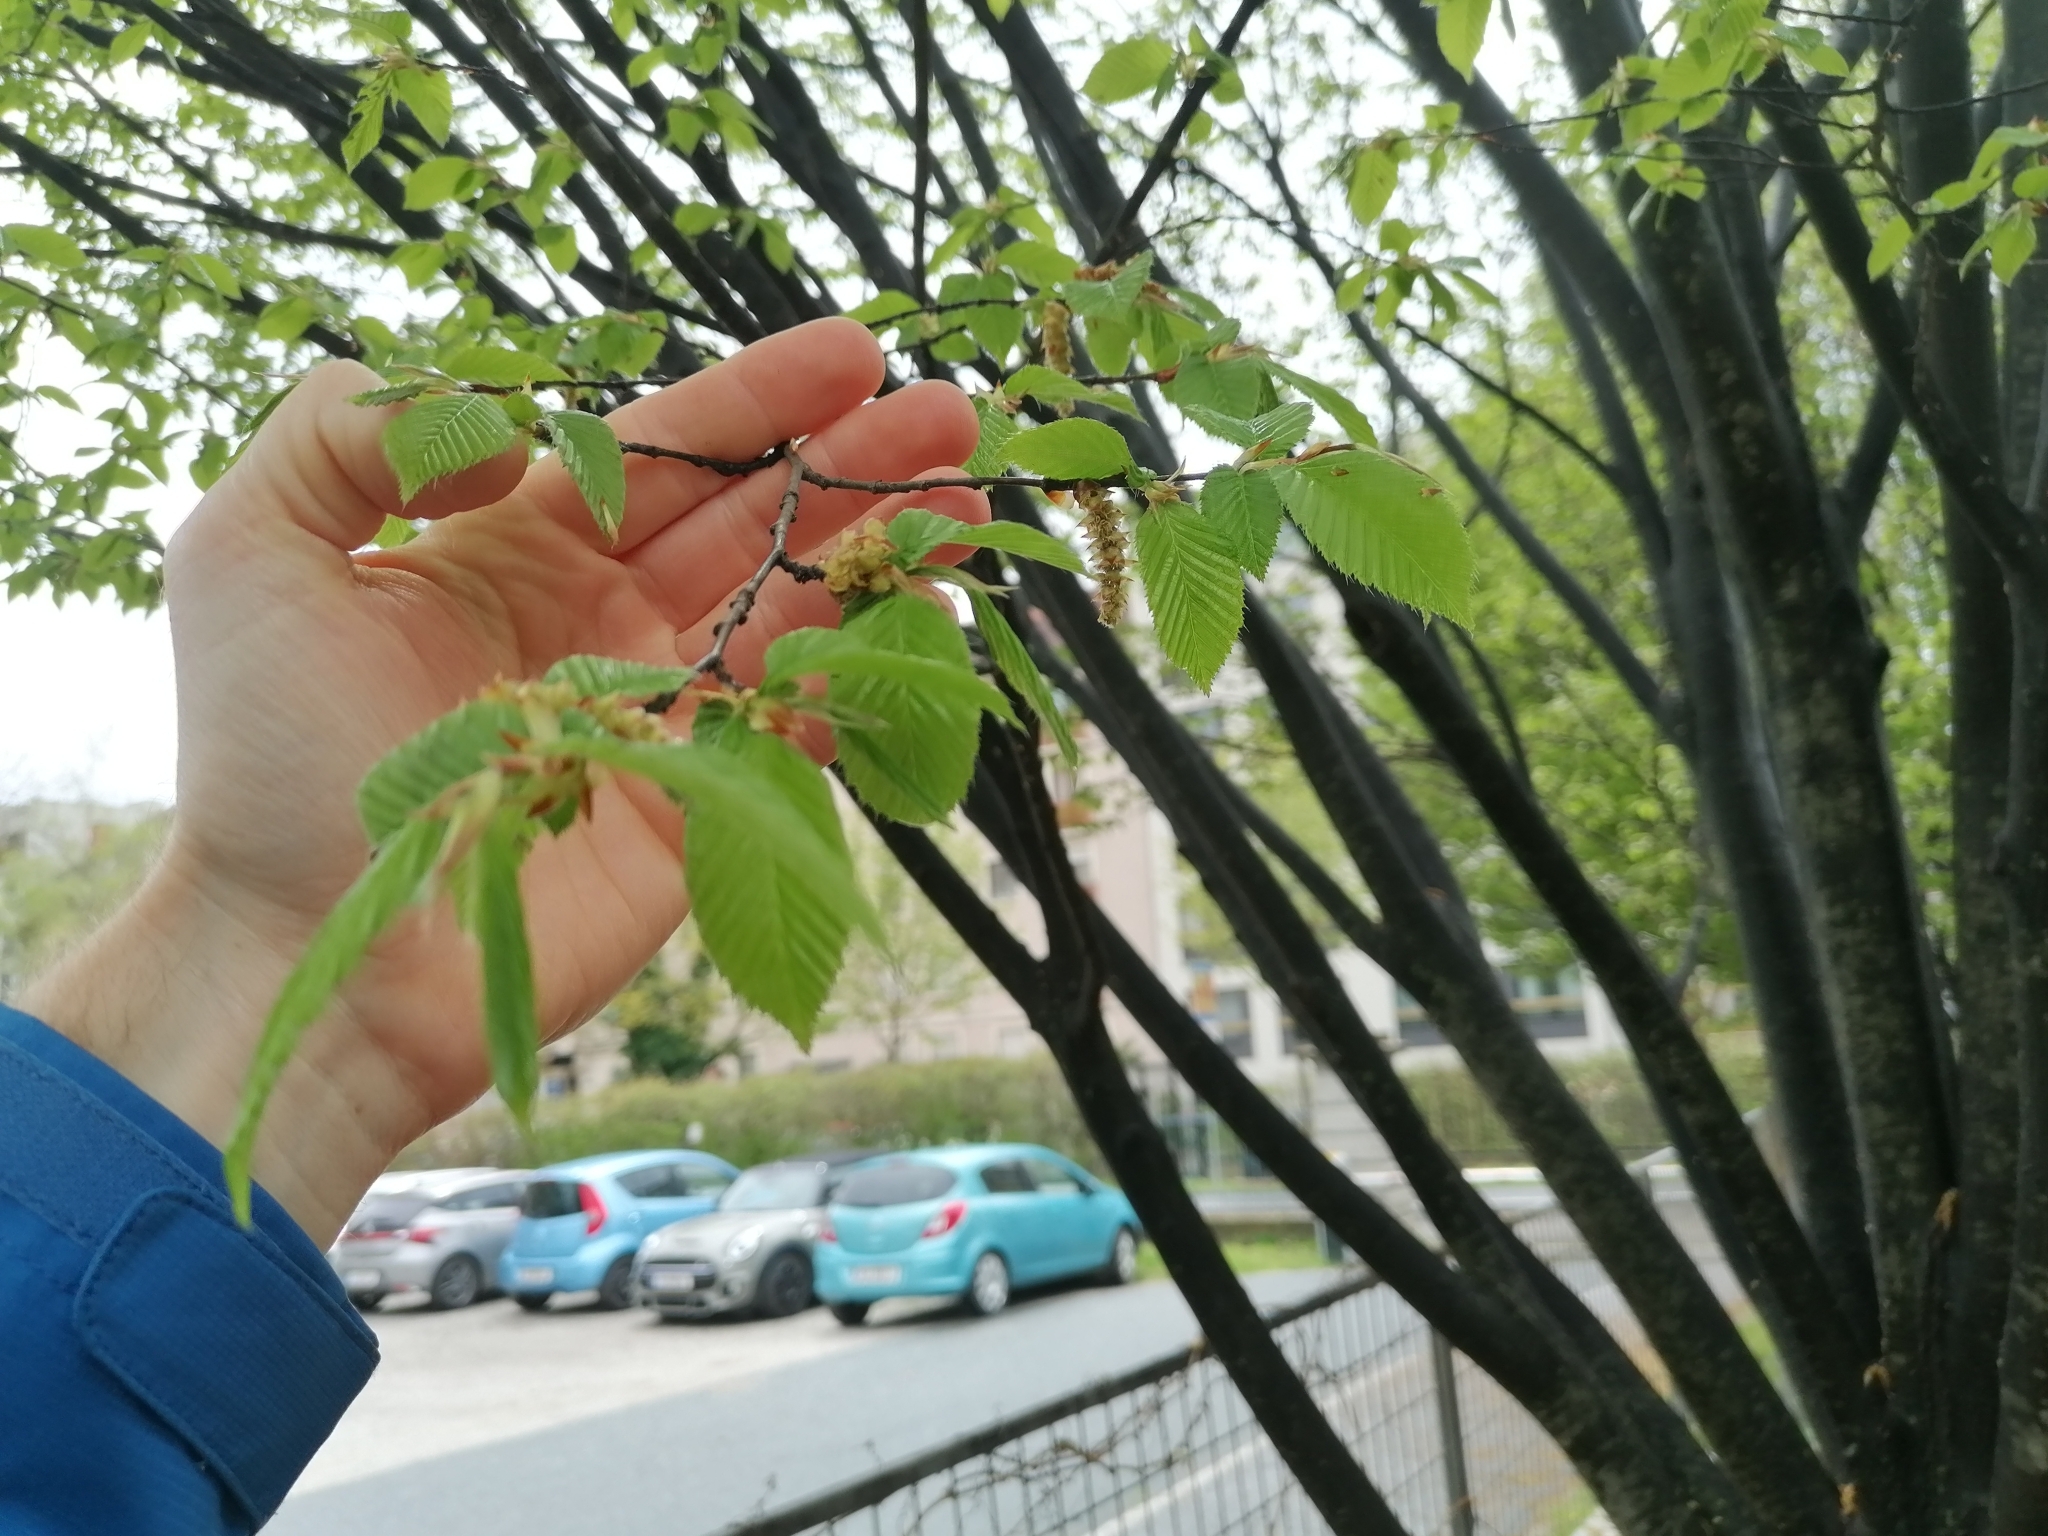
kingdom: Plantae
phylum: Tracheophyta
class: Magnoliopsida
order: Fagales
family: Betulaceae
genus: Carpinus
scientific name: Carpinus betulus
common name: Hornbeam
